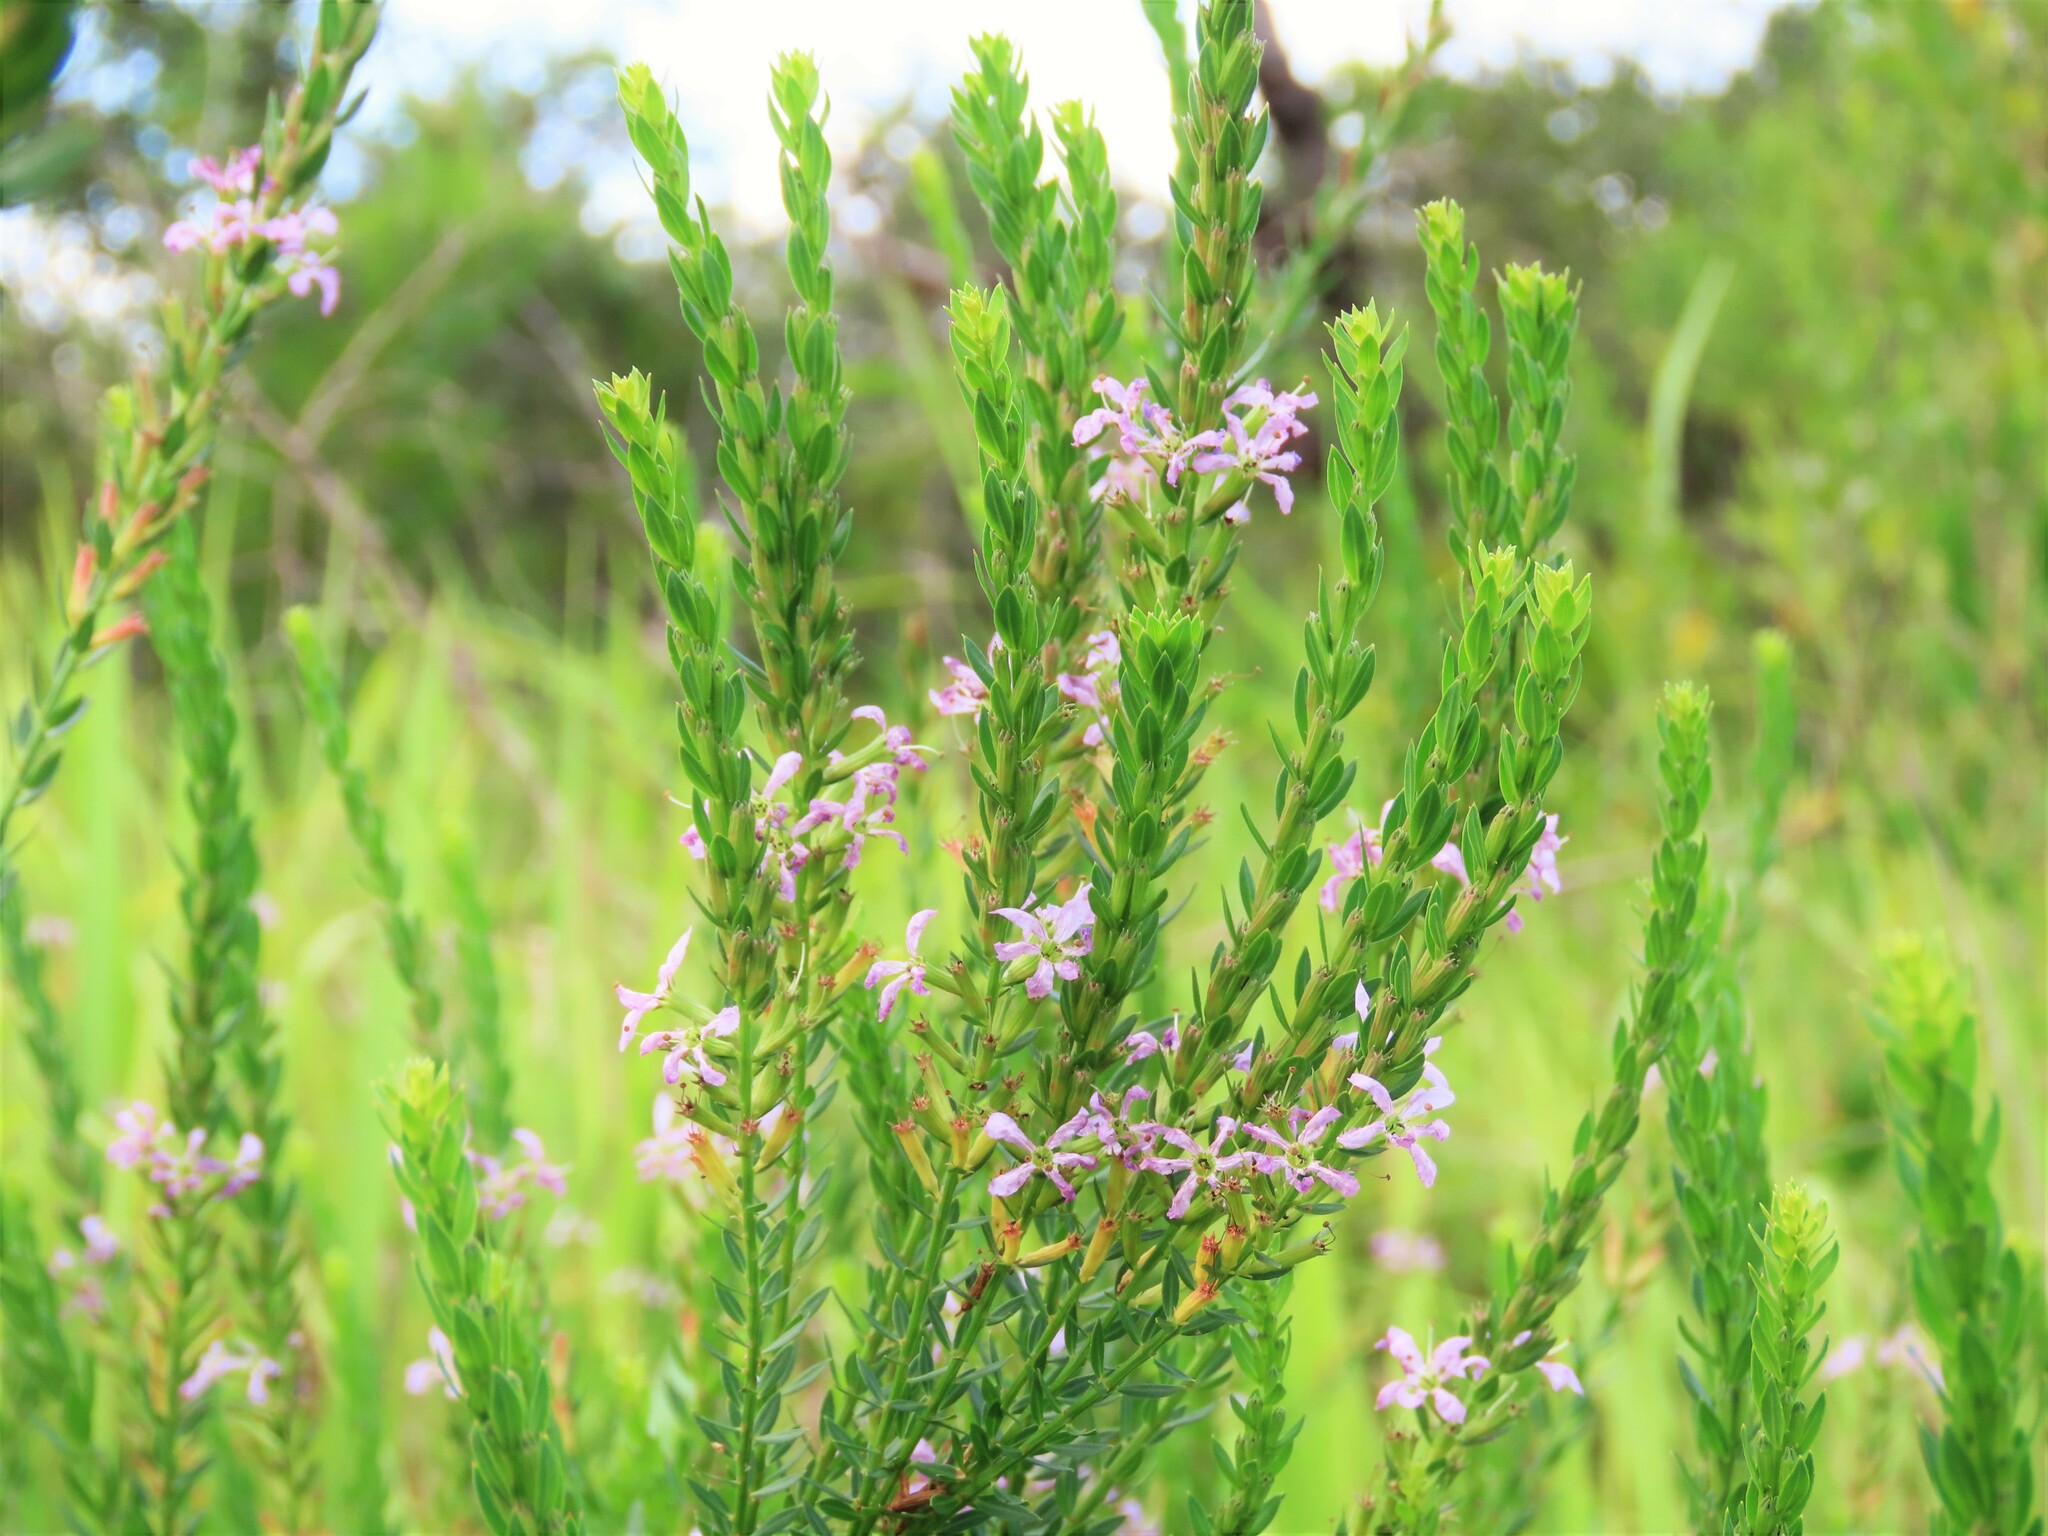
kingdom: Plantae
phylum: Tracheophyta
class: Magnoliopsida
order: Myrtales
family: Lythraceae
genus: Lythrum
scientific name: Lythrum alatum
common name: Winged loosestrife
